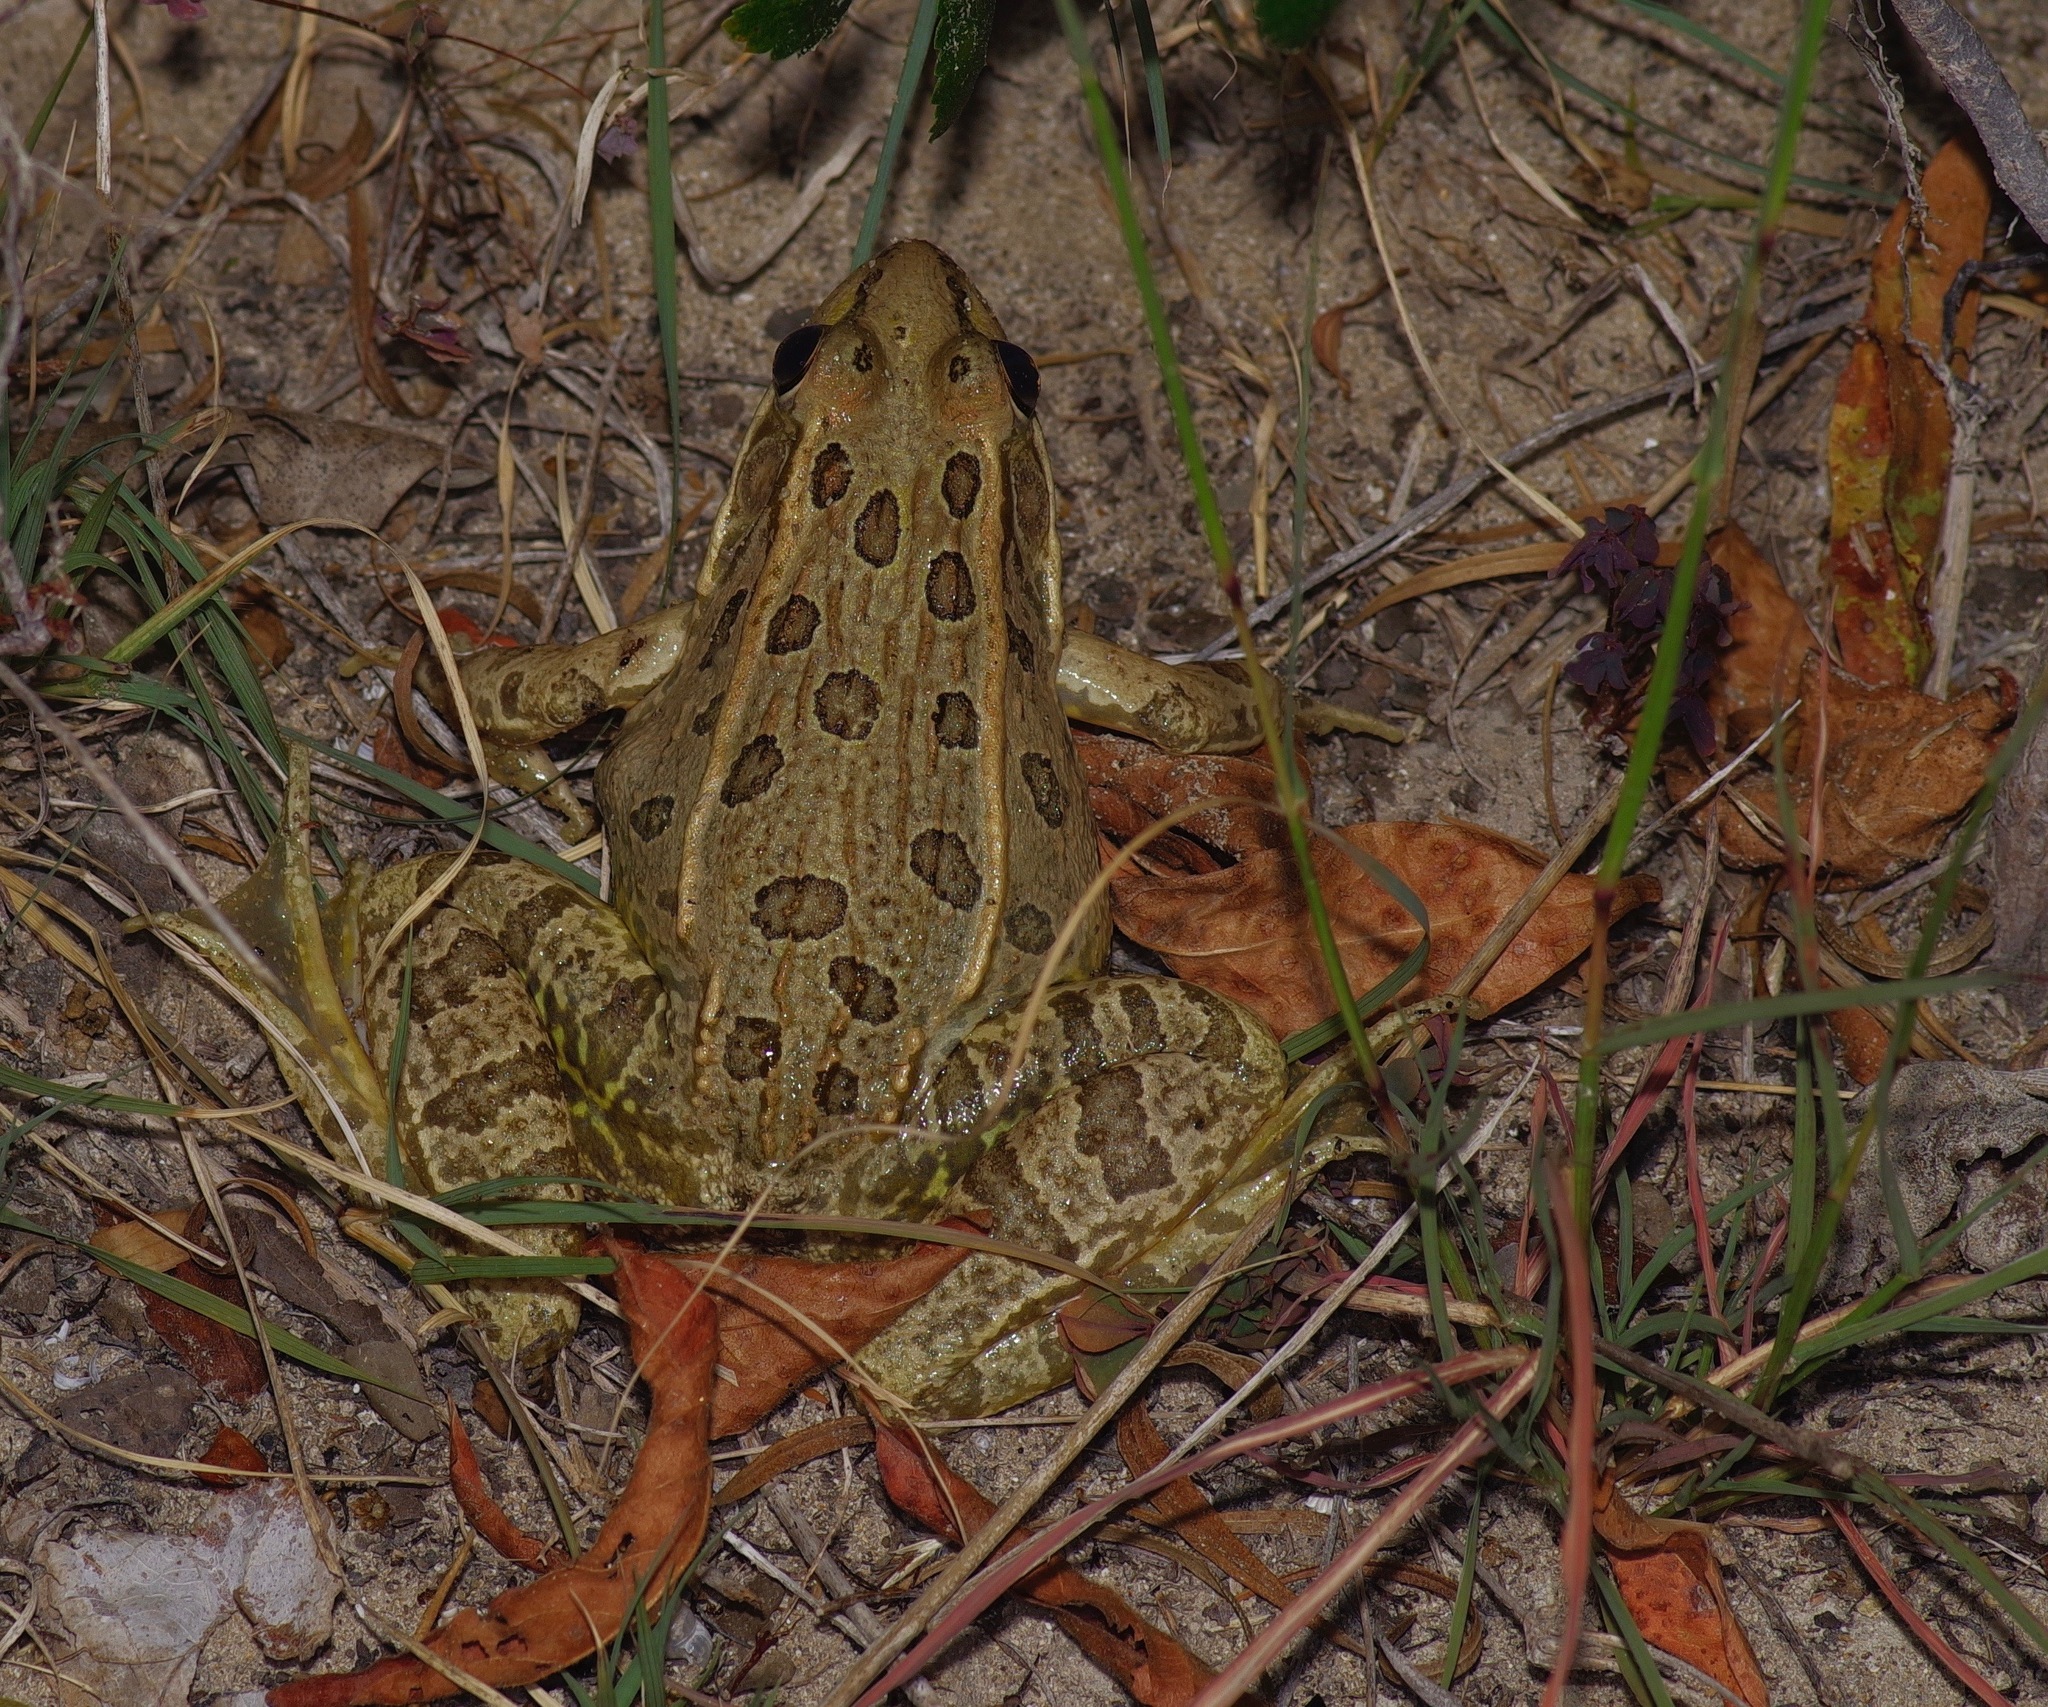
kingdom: Animalia
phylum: Chordata
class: Amphibia
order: Anura
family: Ranidae
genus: Lithobates
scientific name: Lithobates berlandieri
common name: Rio grande leopard frog
